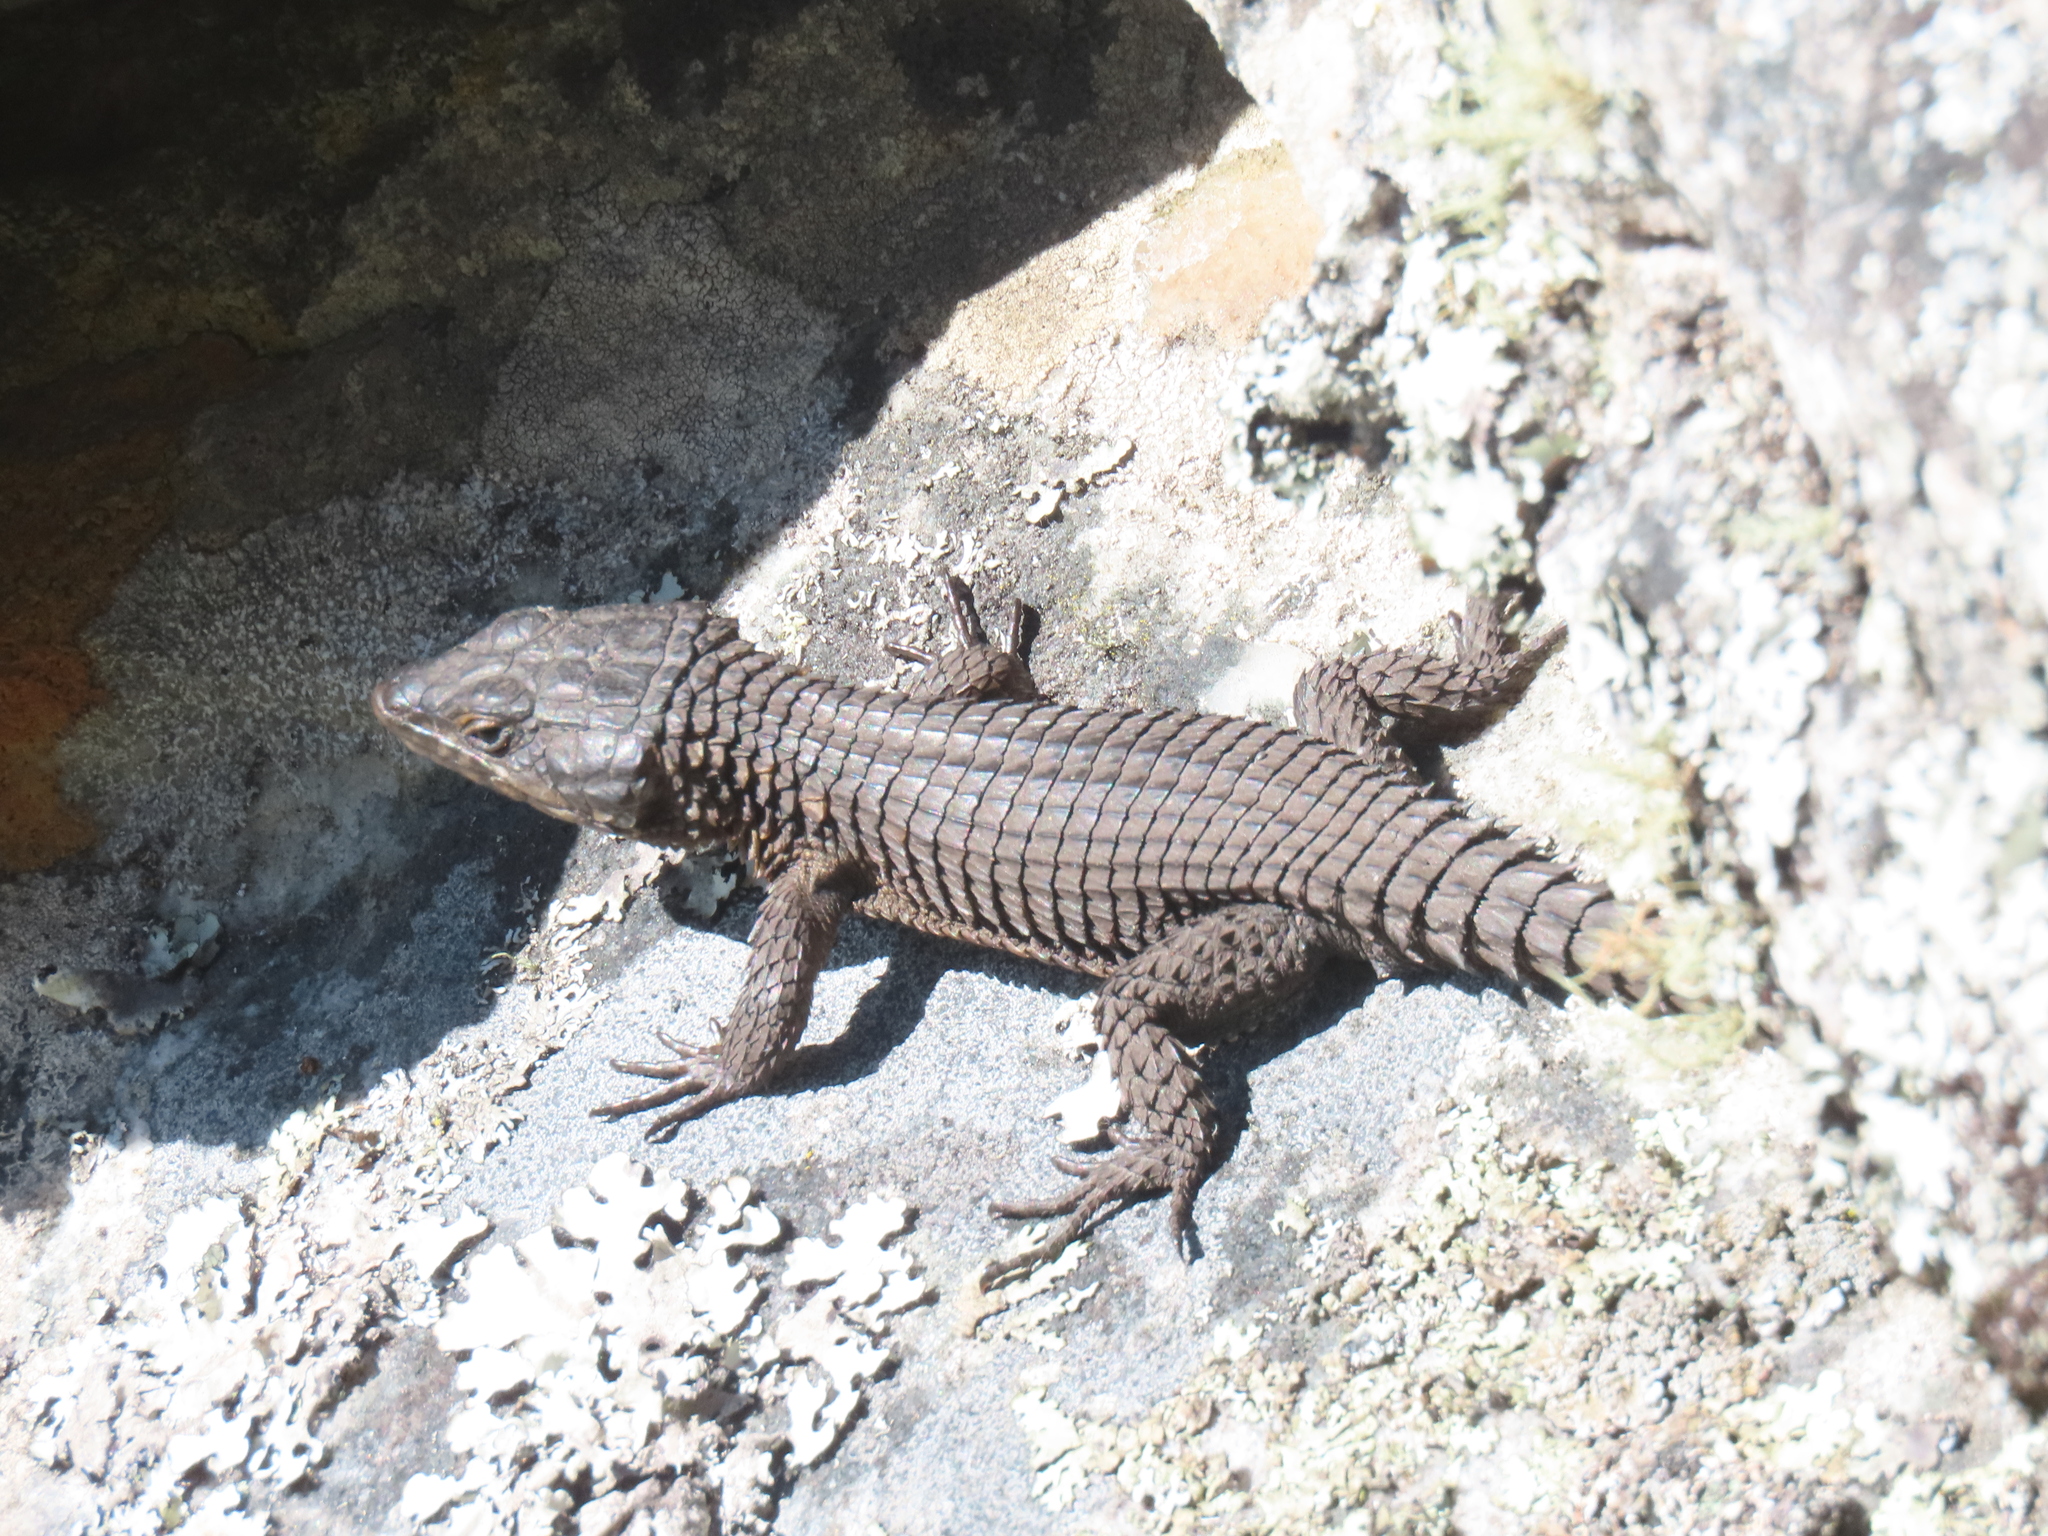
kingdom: Animalia
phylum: Chordata
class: Squamata
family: Cordylidae
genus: Cordylus
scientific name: Cordylus niger
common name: Black girdled lizard
